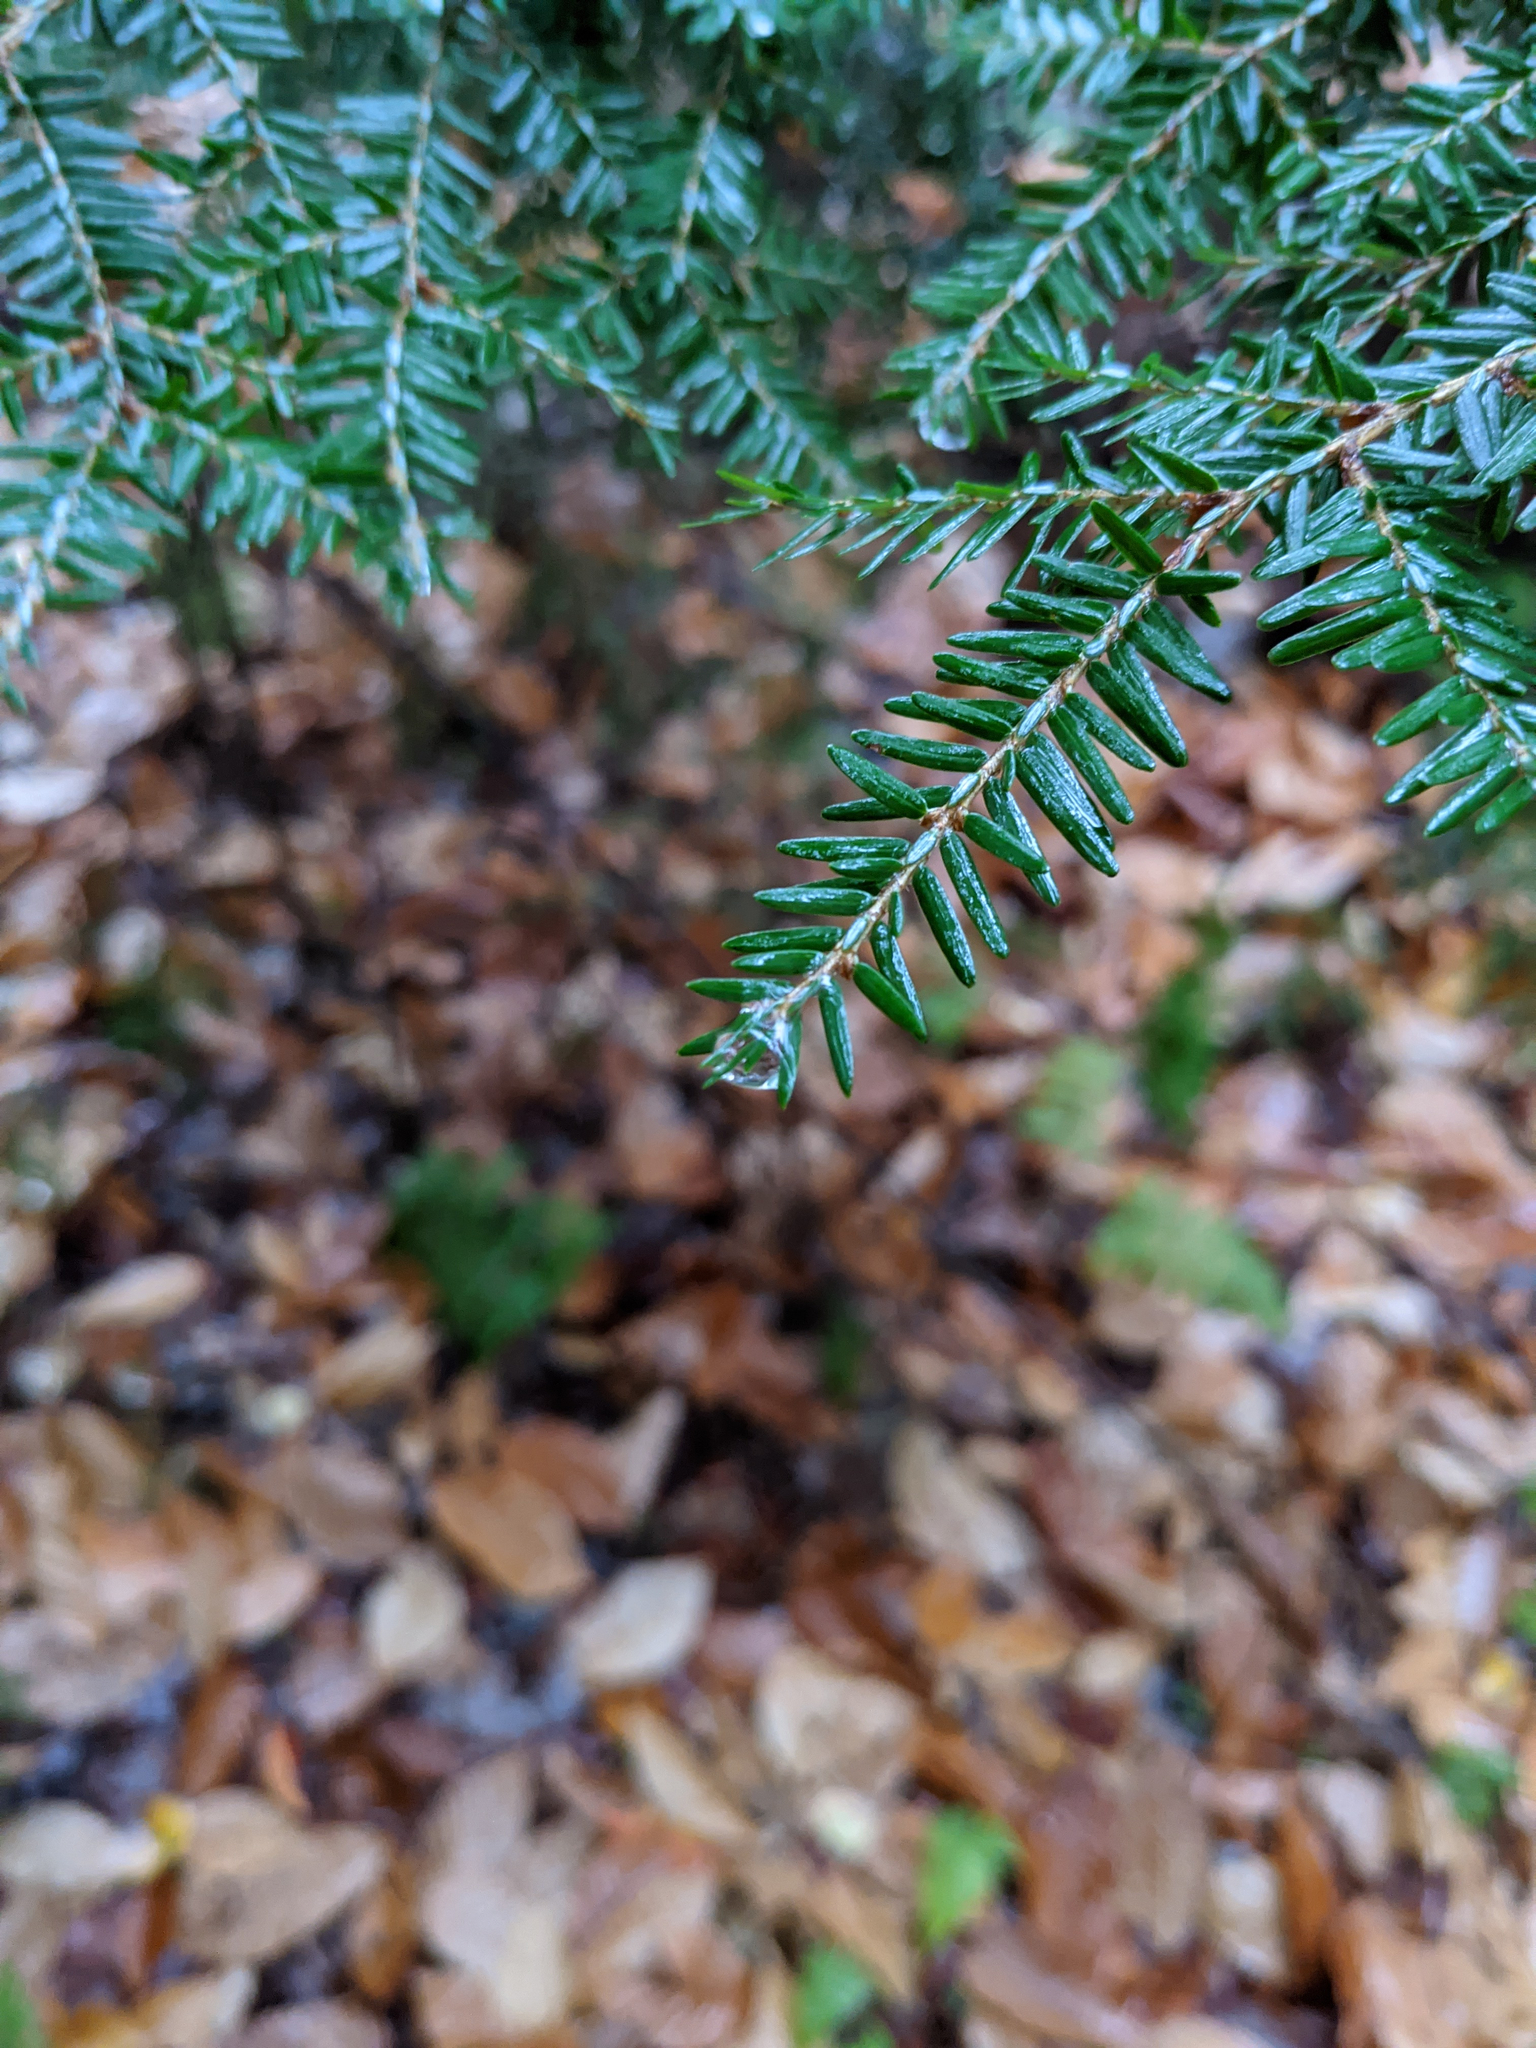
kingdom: Plantae
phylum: Tracheophyta
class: Pinopsida
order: Pinales
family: Pinaceae
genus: Tsuga
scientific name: Tsuga canadensis
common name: Eastern hemlock
